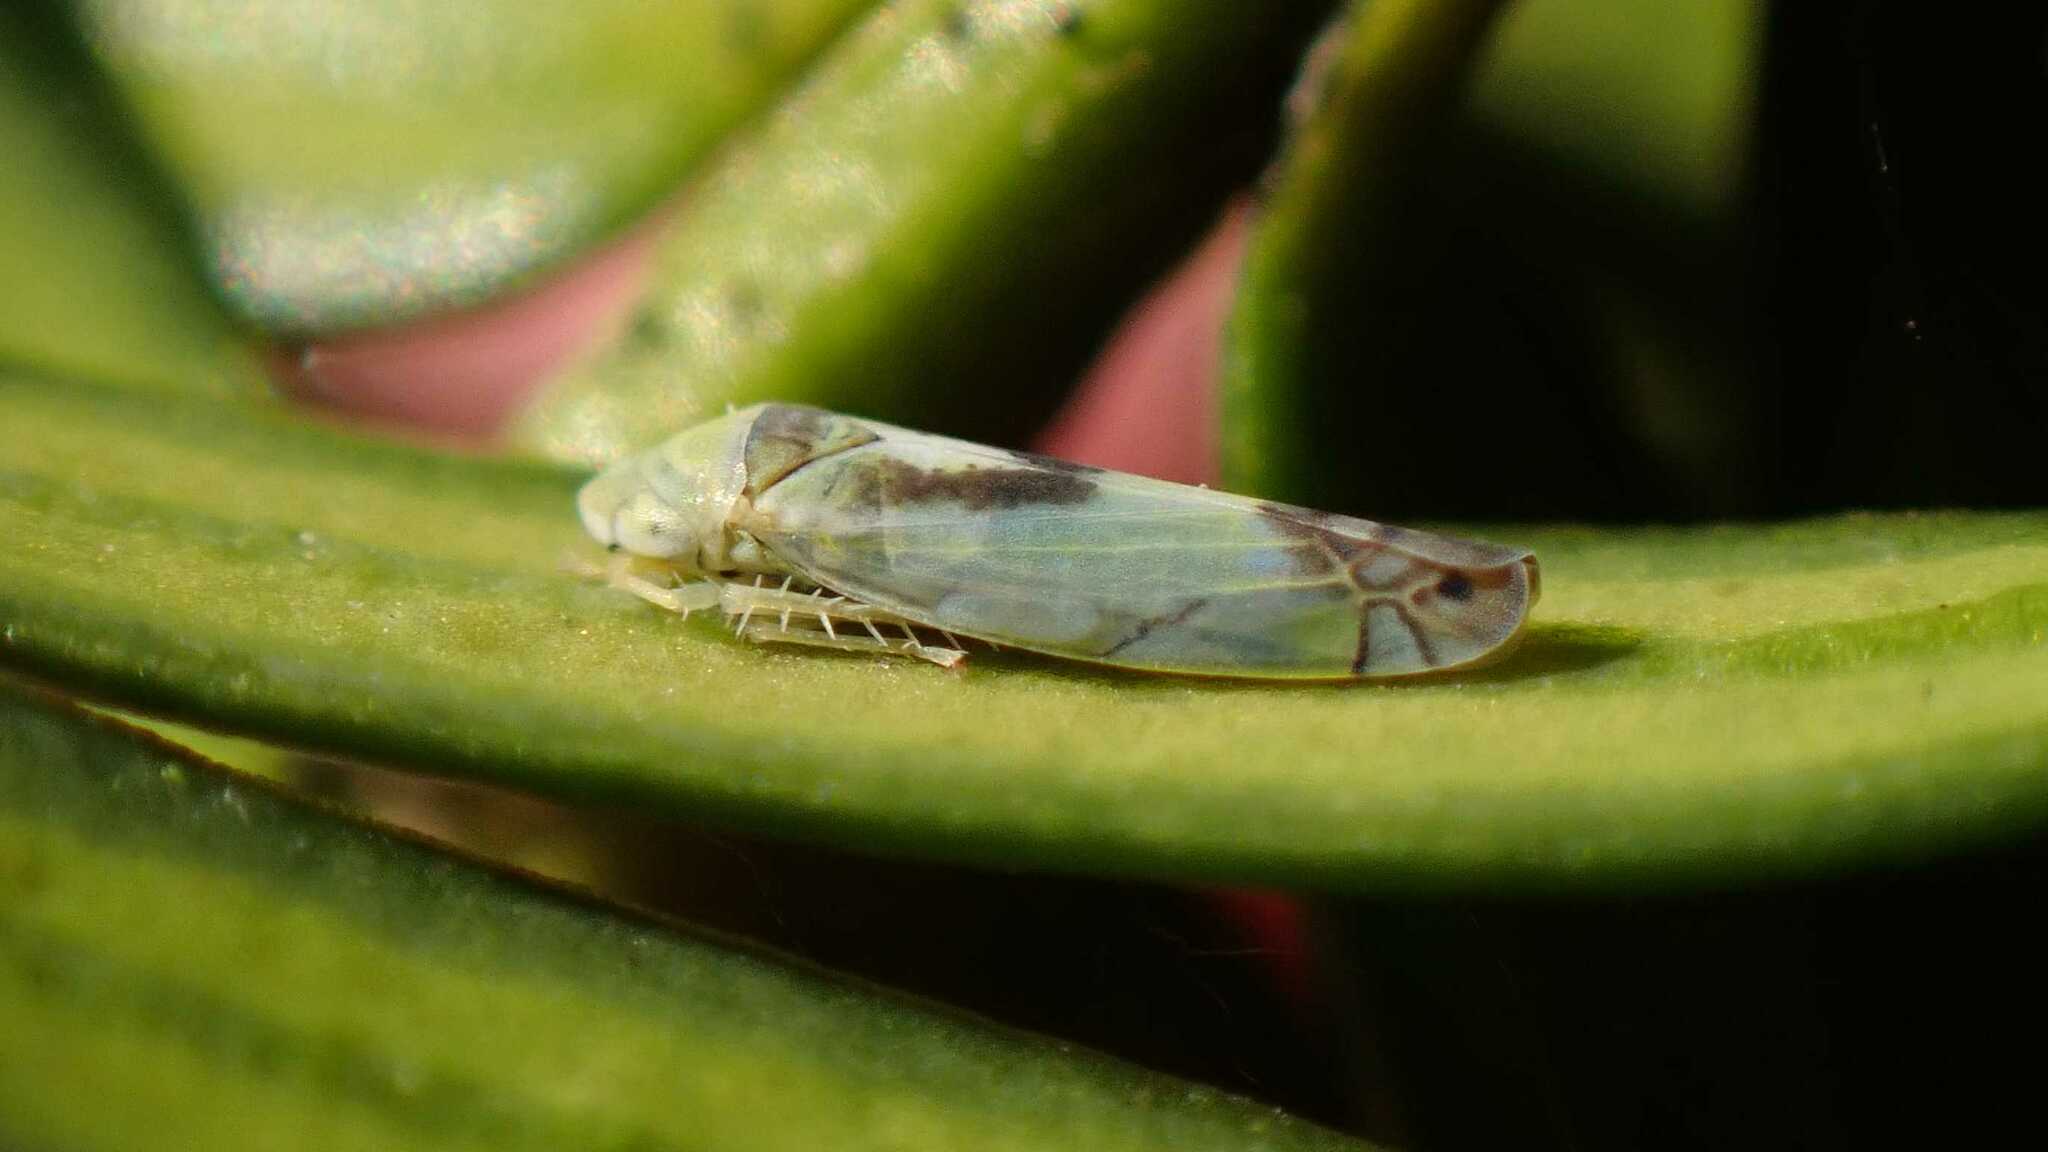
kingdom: Animalia
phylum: Arthropoda
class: Insecta
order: Hemiptera
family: Cicadellidae
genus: Zyginella
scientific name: Zyginella pulchra
